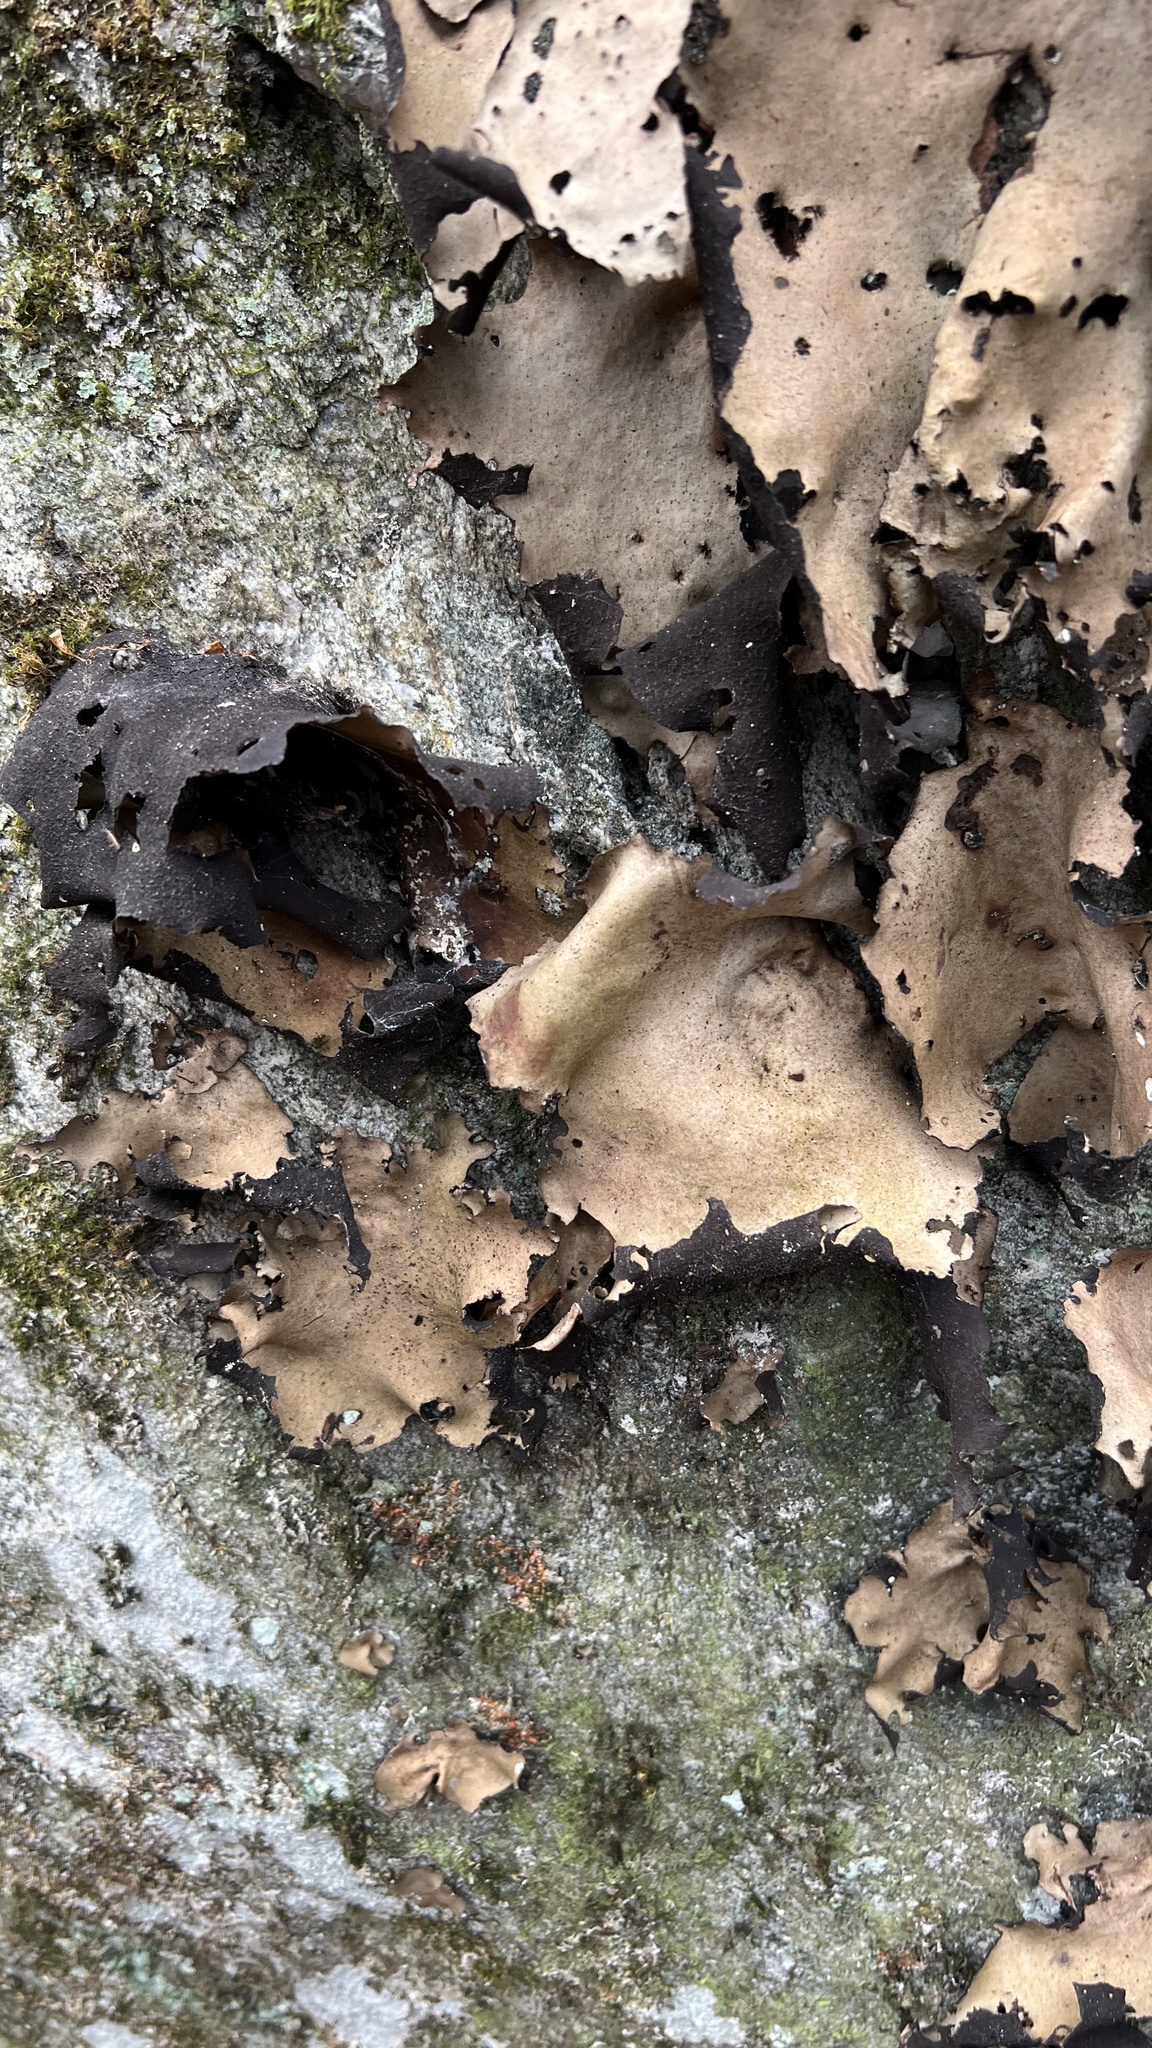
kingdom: Fungi
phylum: Ascomycota
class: Lecanoromycetes
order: Umbilicariales
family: Umbilicariaceae
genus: Umbilicaria
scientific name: Umbilicaria mammulata
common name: Smooth rock tripe
